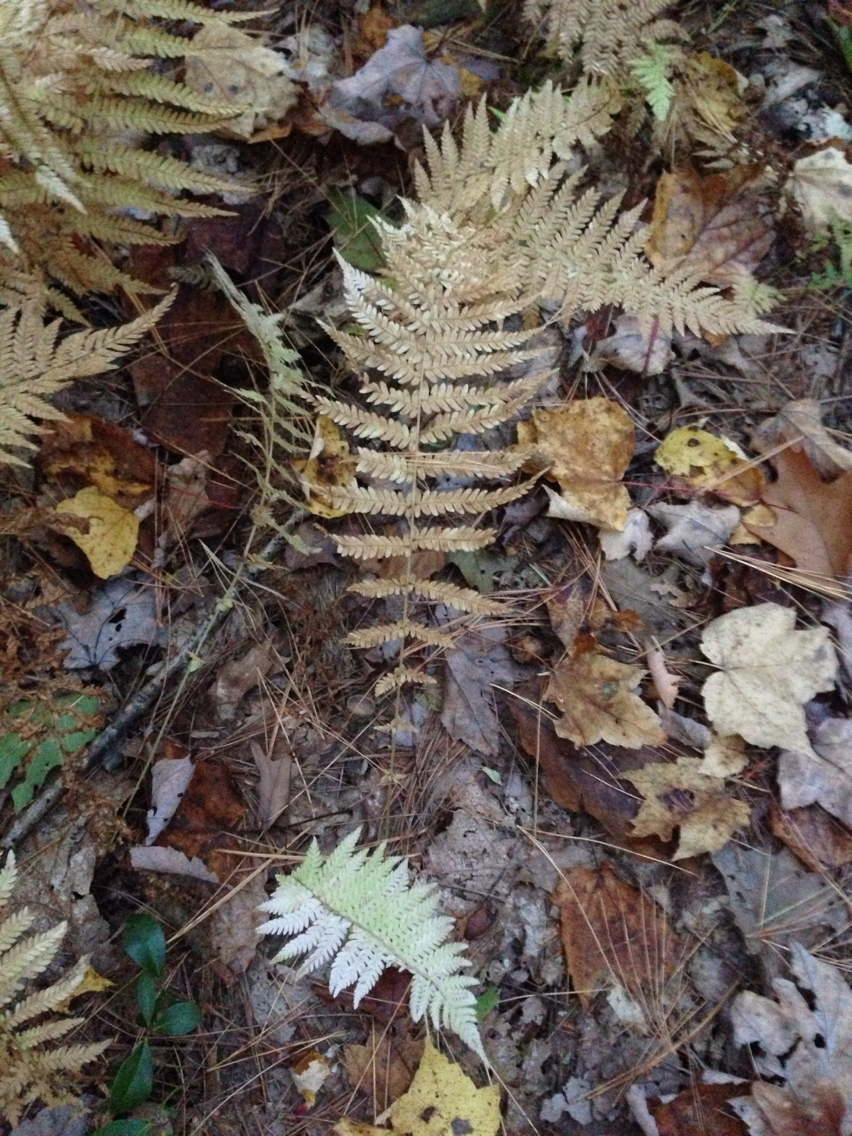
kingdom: Plantae
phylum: Tracheophyta
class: Polypodiopsida
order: Polypodiales
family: Thelypteridaceae
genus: Amauropelta
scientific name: Amauropelta noveboracensis
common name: New york fern
